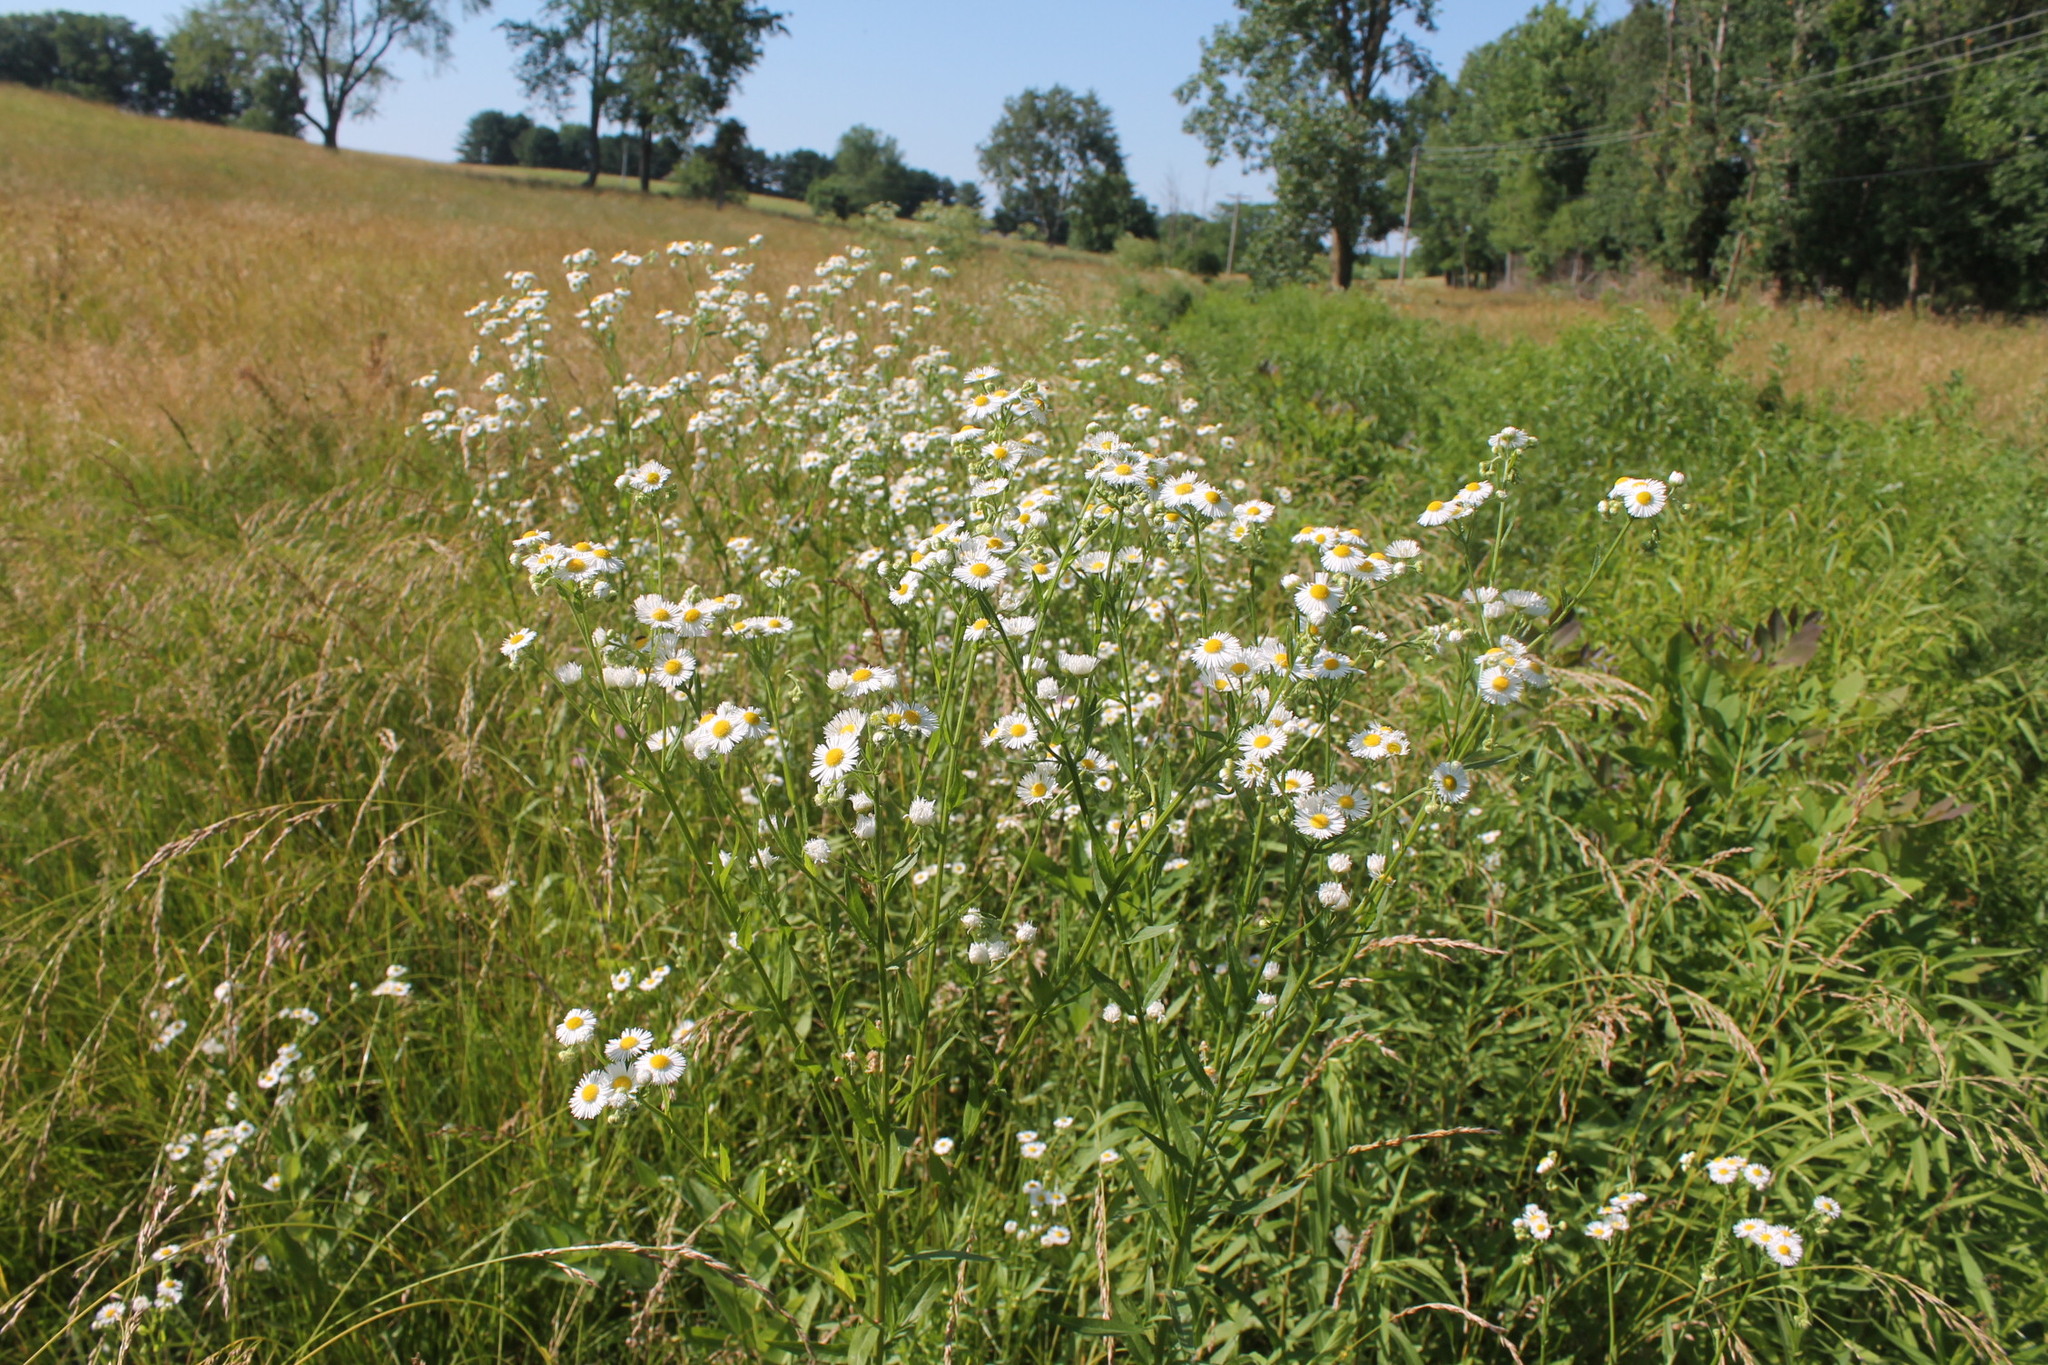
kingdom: Plantae
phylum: Tracheophyta
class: Magnoliopsida
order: Asterales
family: Asteraceae
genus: Erigeron
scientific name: Erigeron annuus
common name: Tall fleabane
